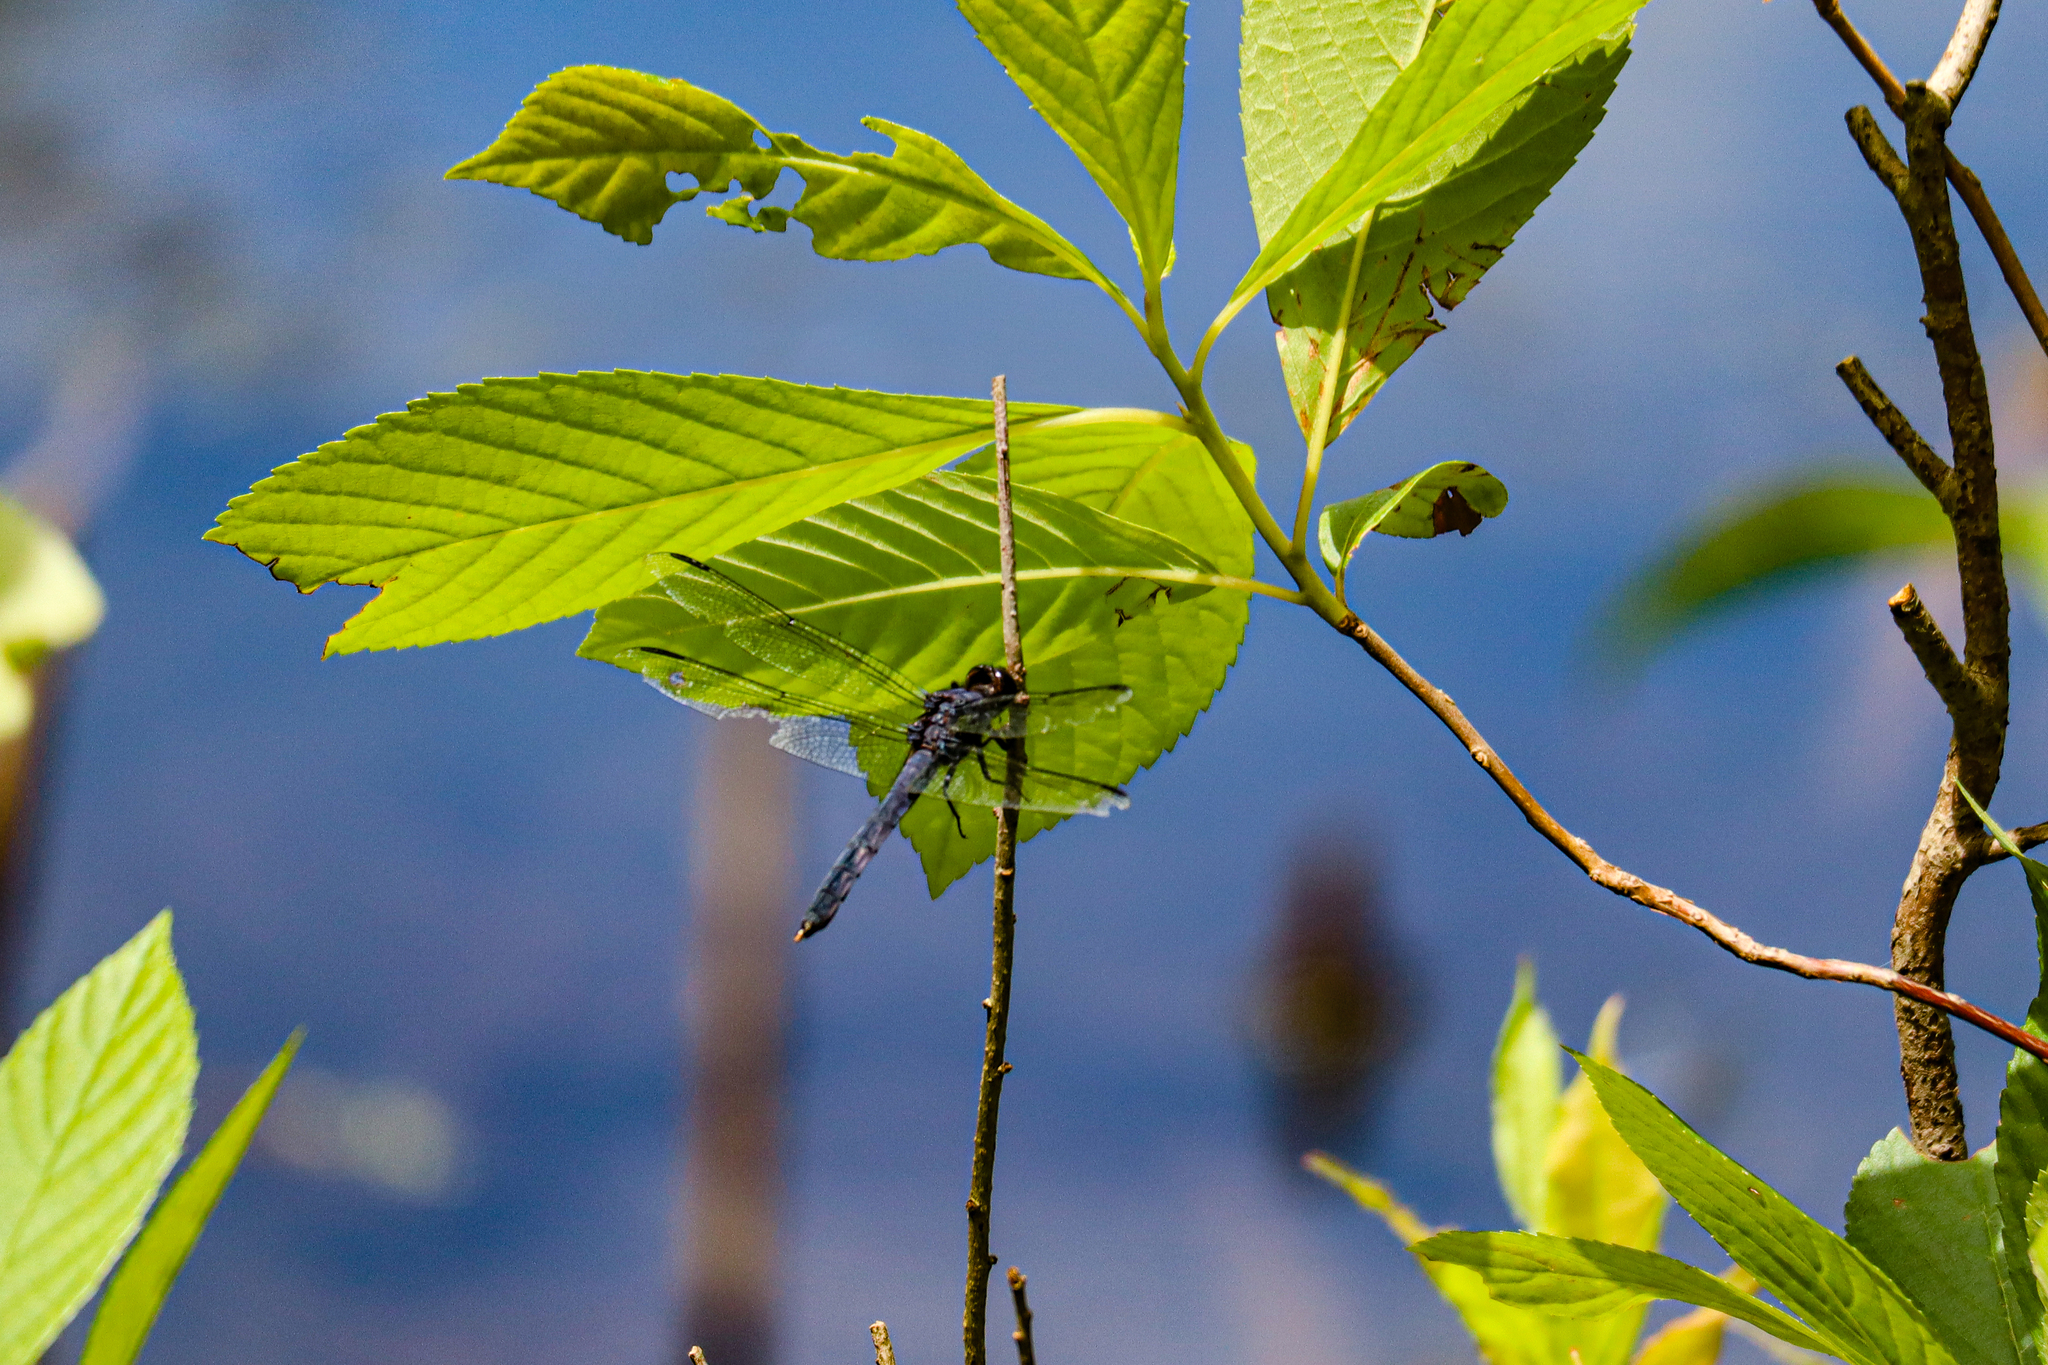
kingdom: Animalia
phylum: Arthropoda
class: Insecta
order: Odonata
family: Libellulidae
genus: Libellula
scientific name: Libellula incesta
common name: Slaty skimmer
